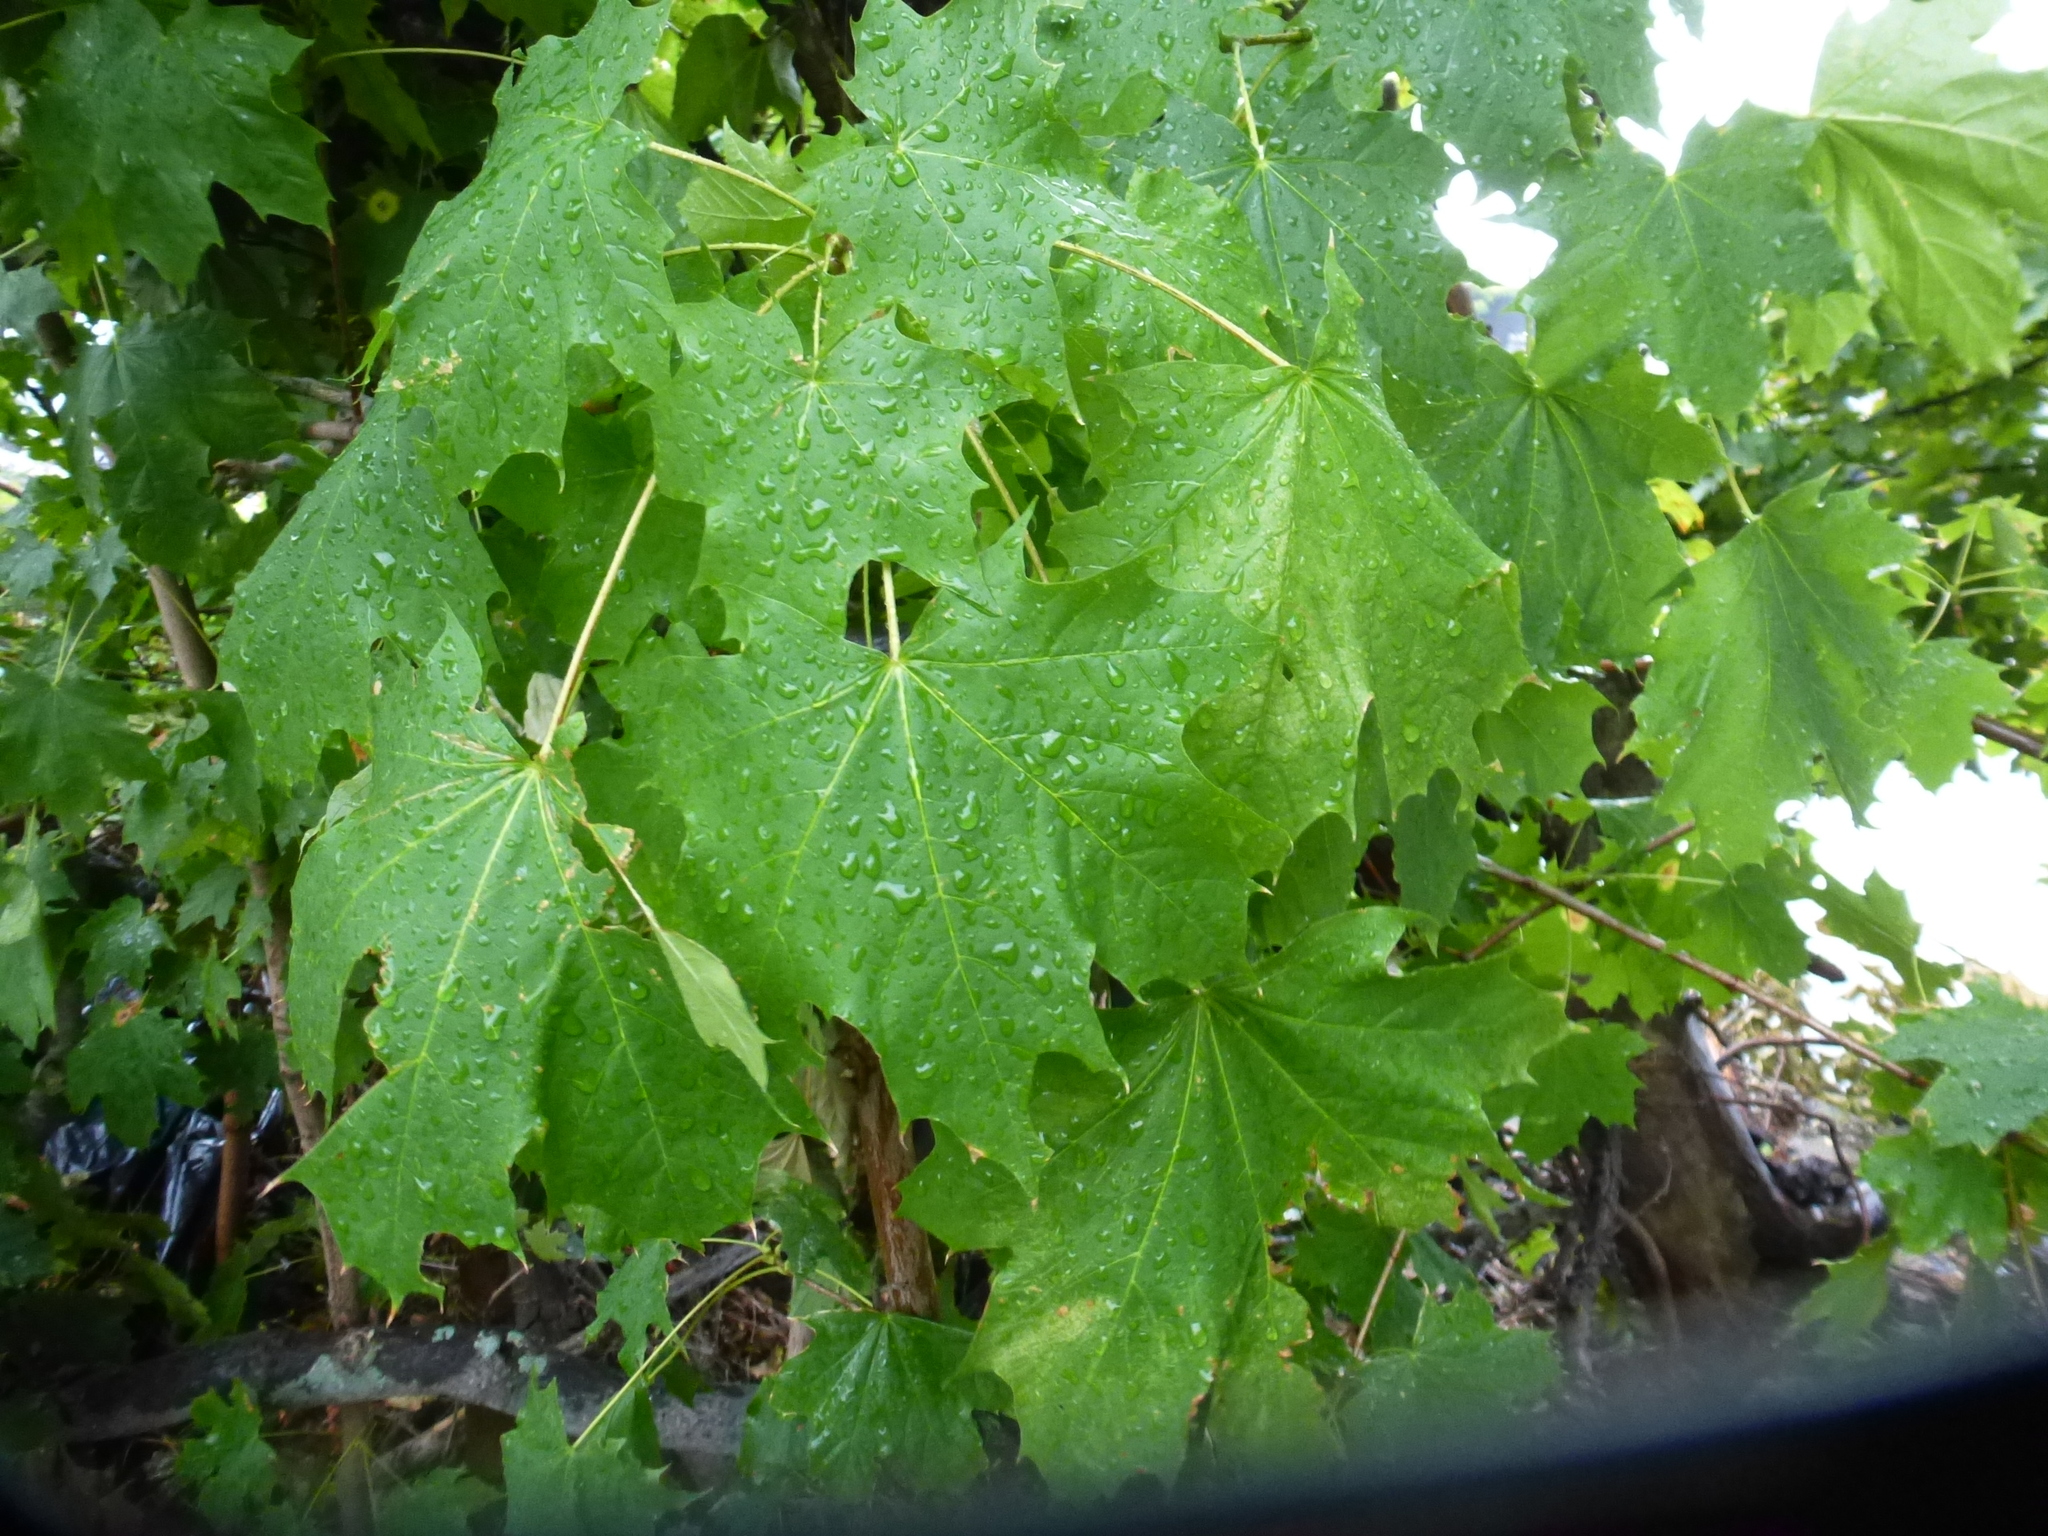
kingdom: Plantae
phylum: Tracheophyta
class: Magnoliopsida
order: Sapindales
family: Sapindaceae
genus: Acer
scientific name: Acer platanoides
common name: Norway maple
